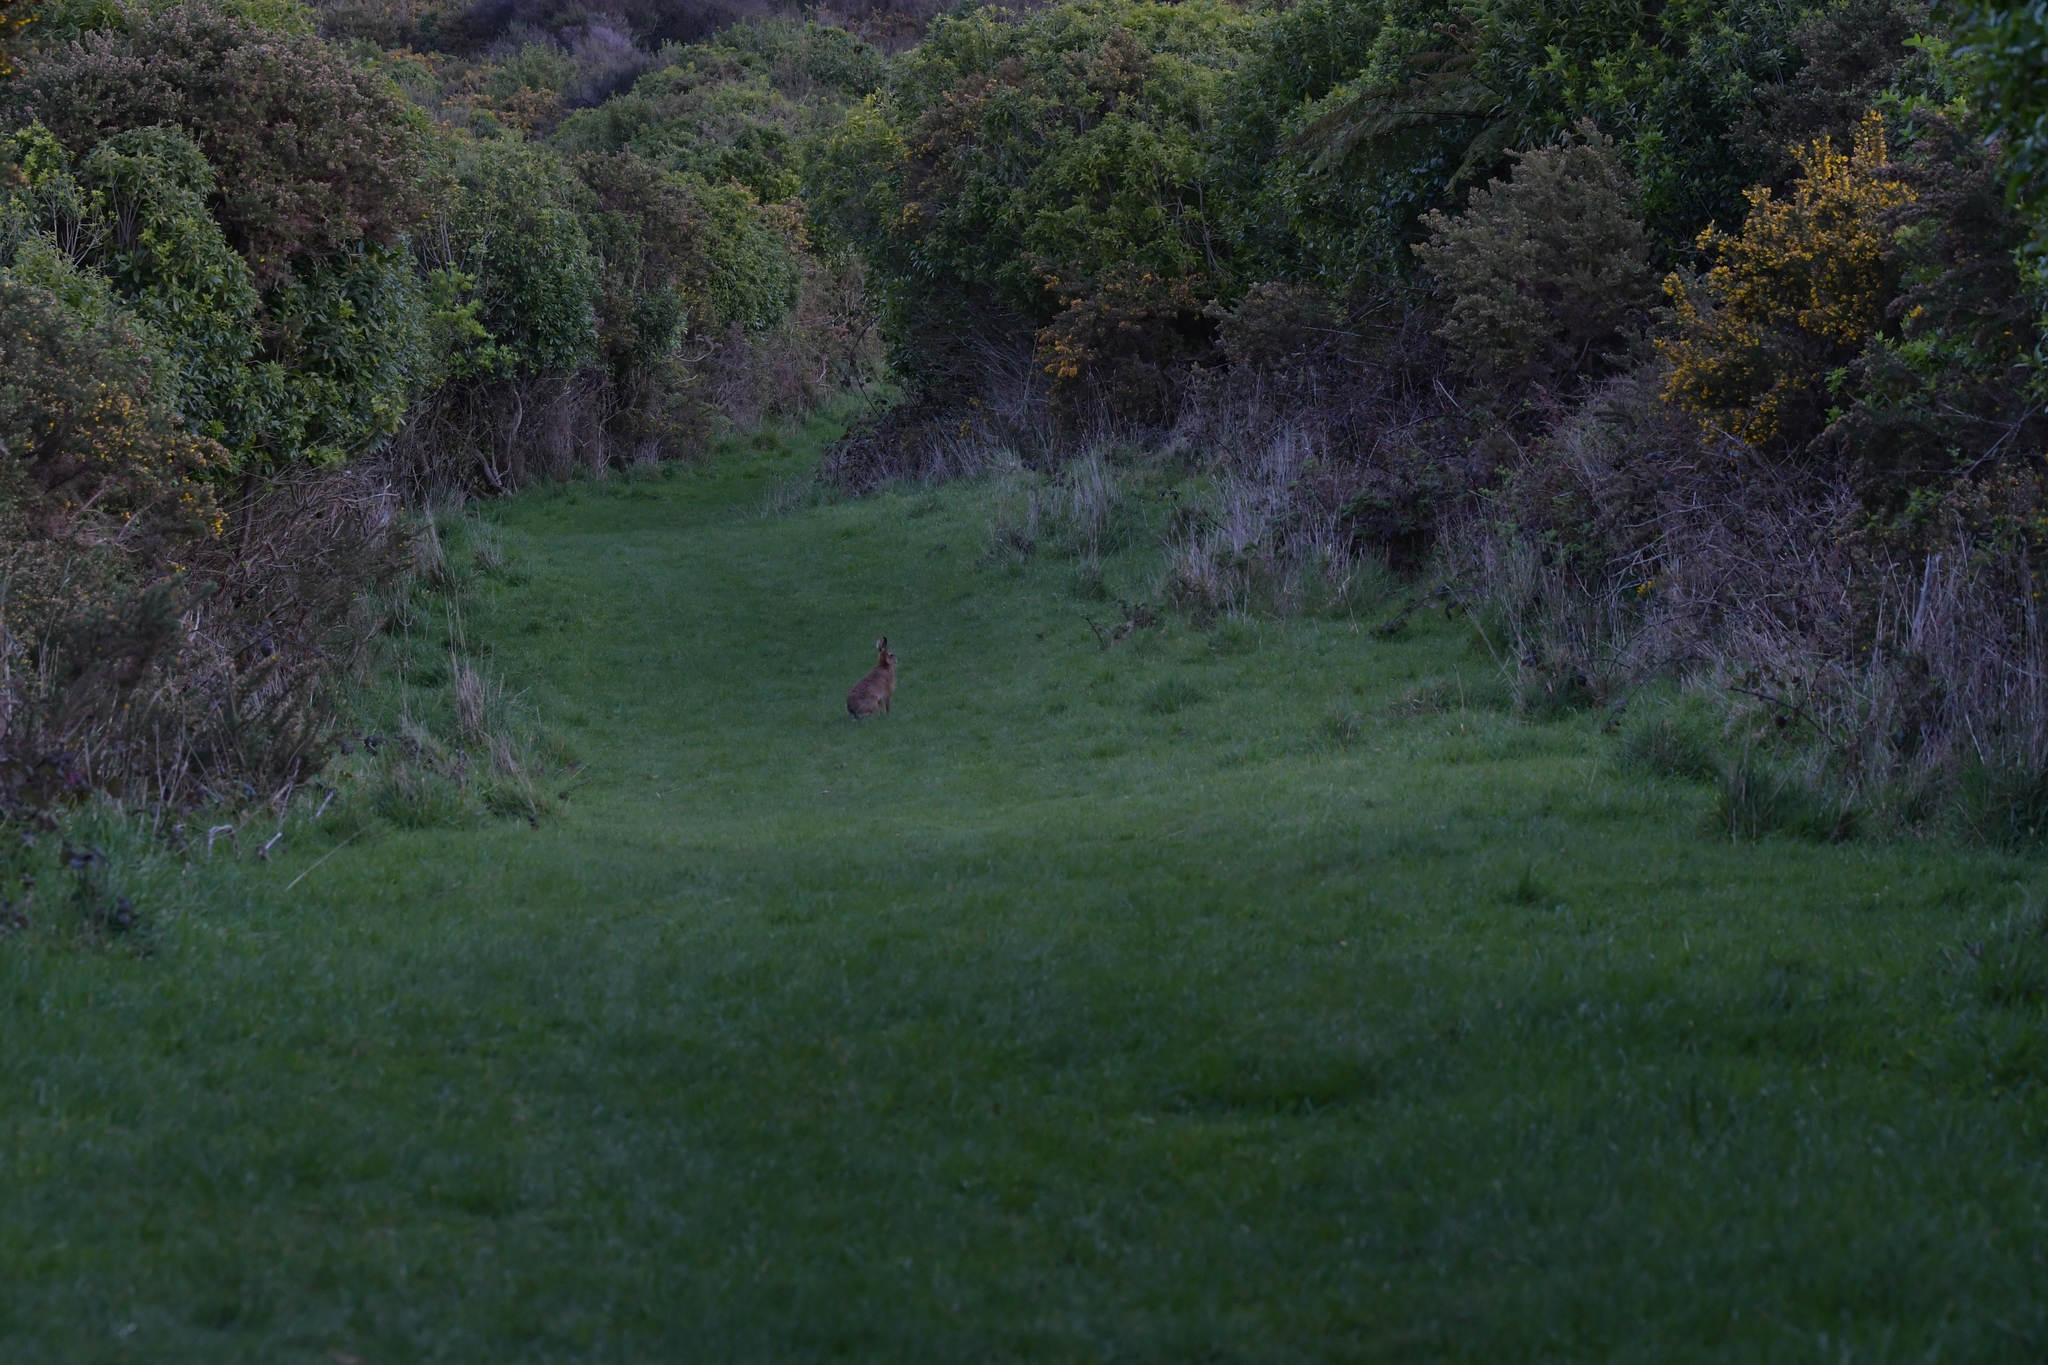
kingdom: Animalia
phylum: Chordata
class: Mammalia
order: Lagomorpha
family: Leporidae
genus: Lepus
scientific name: Lepus europaeus
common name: European hare
